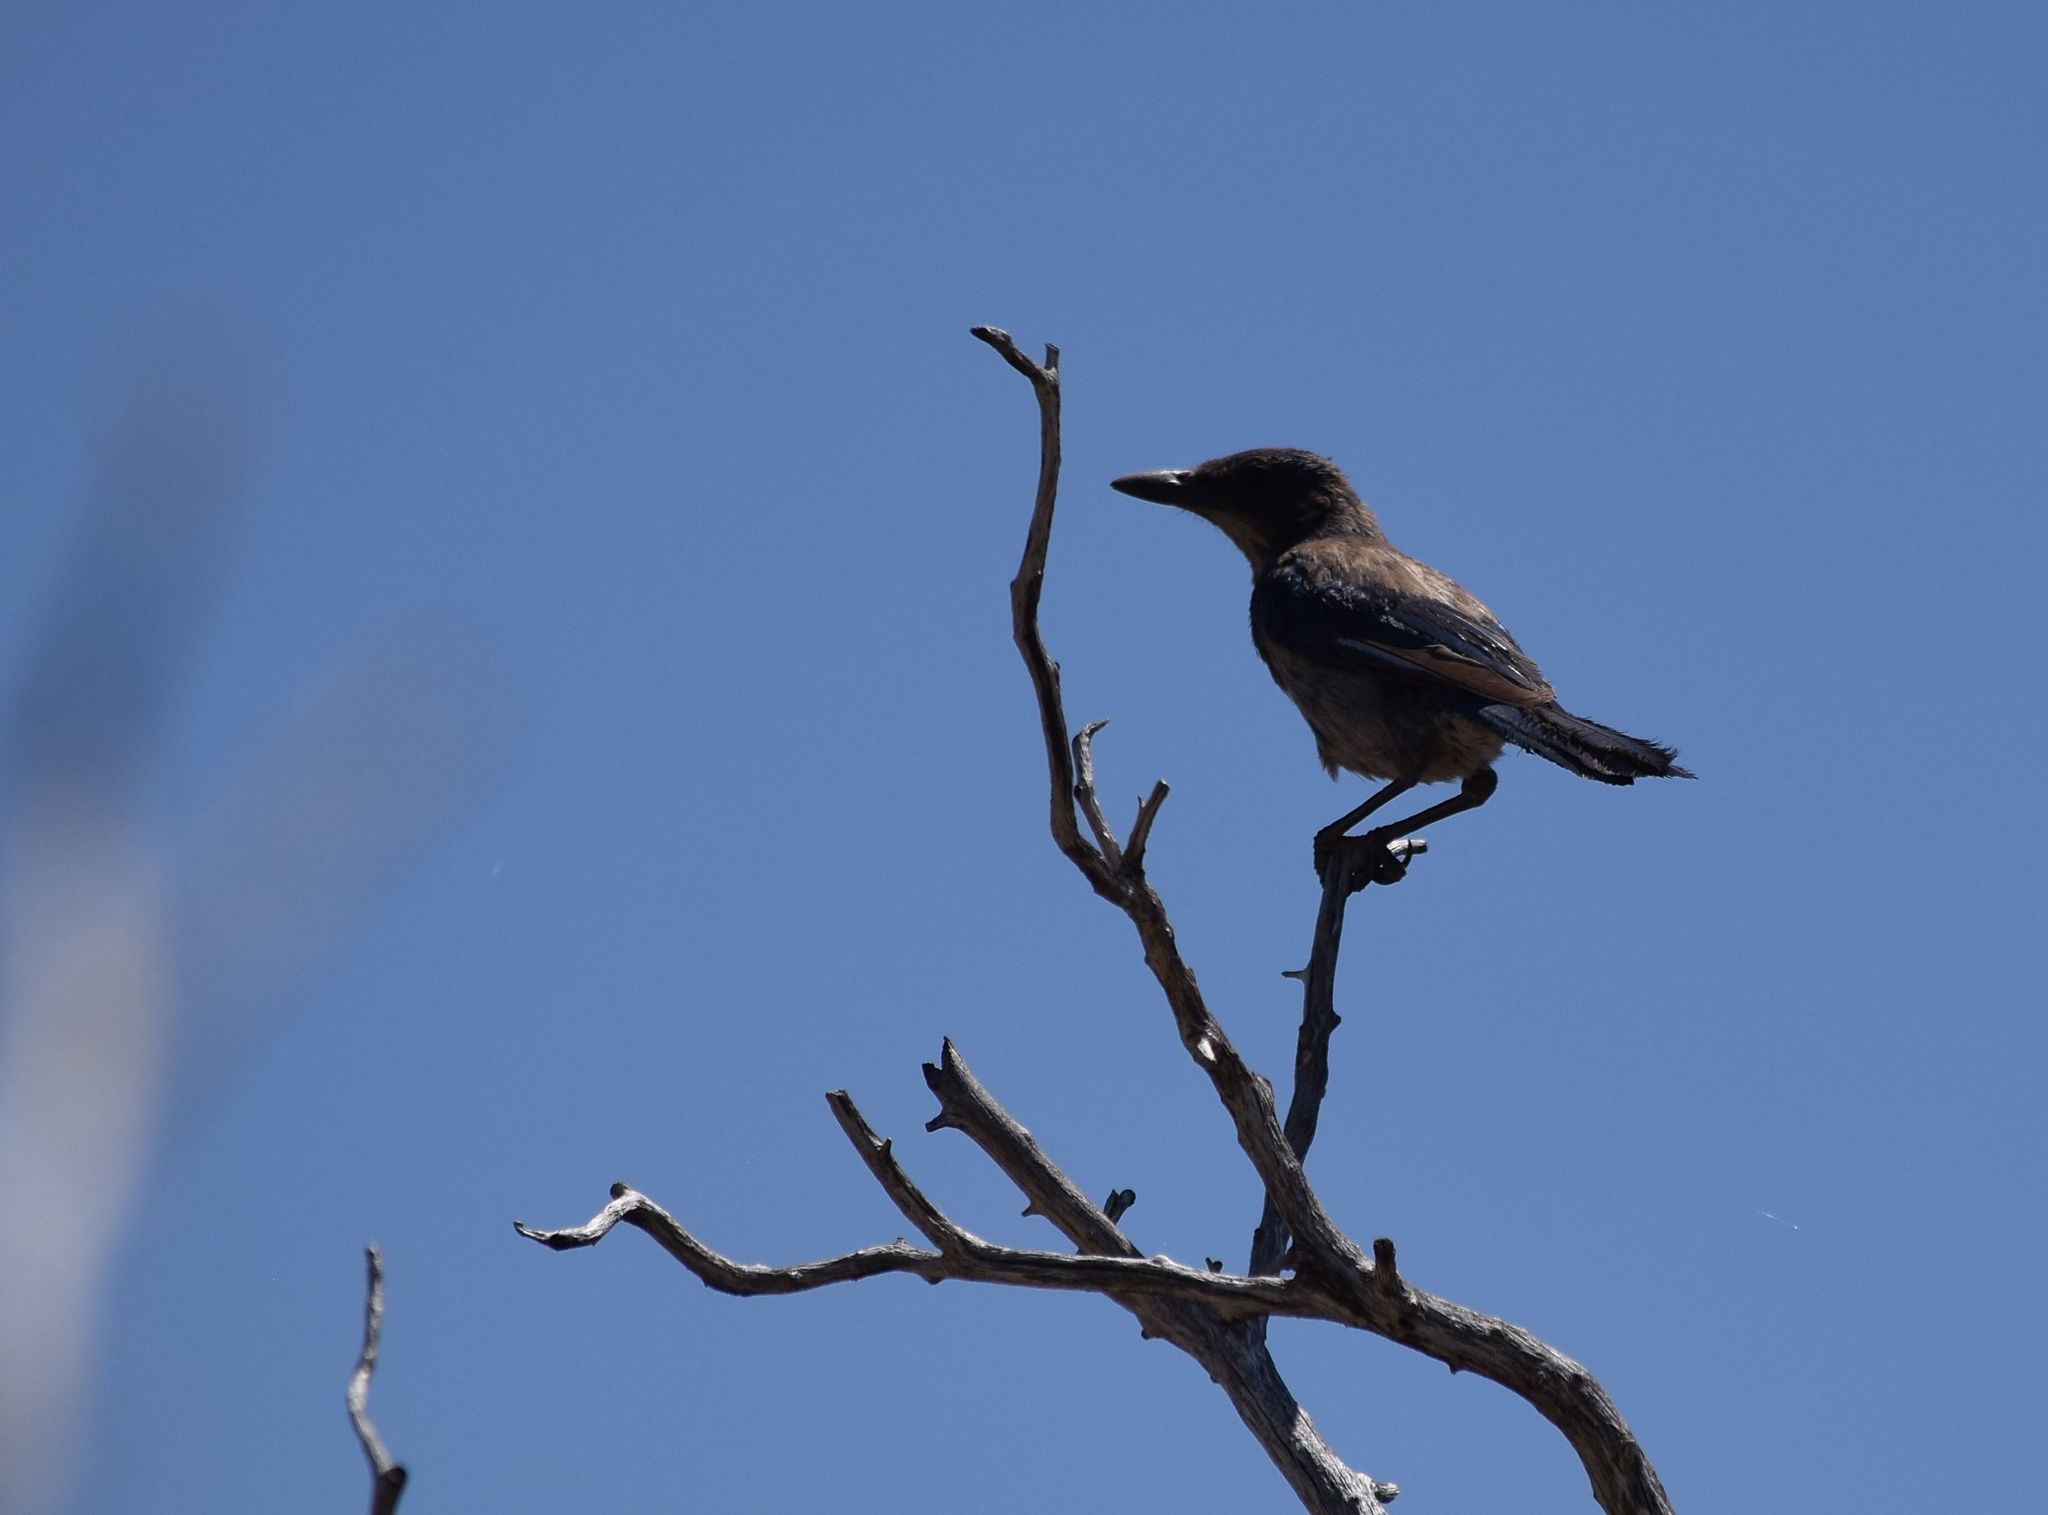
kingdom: Animalia
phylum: Chordata
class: Aves
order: Passeriformes
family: Corvidae
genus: Aphelocoma
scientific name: Aphelocoma californica
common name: California scrub-jay
